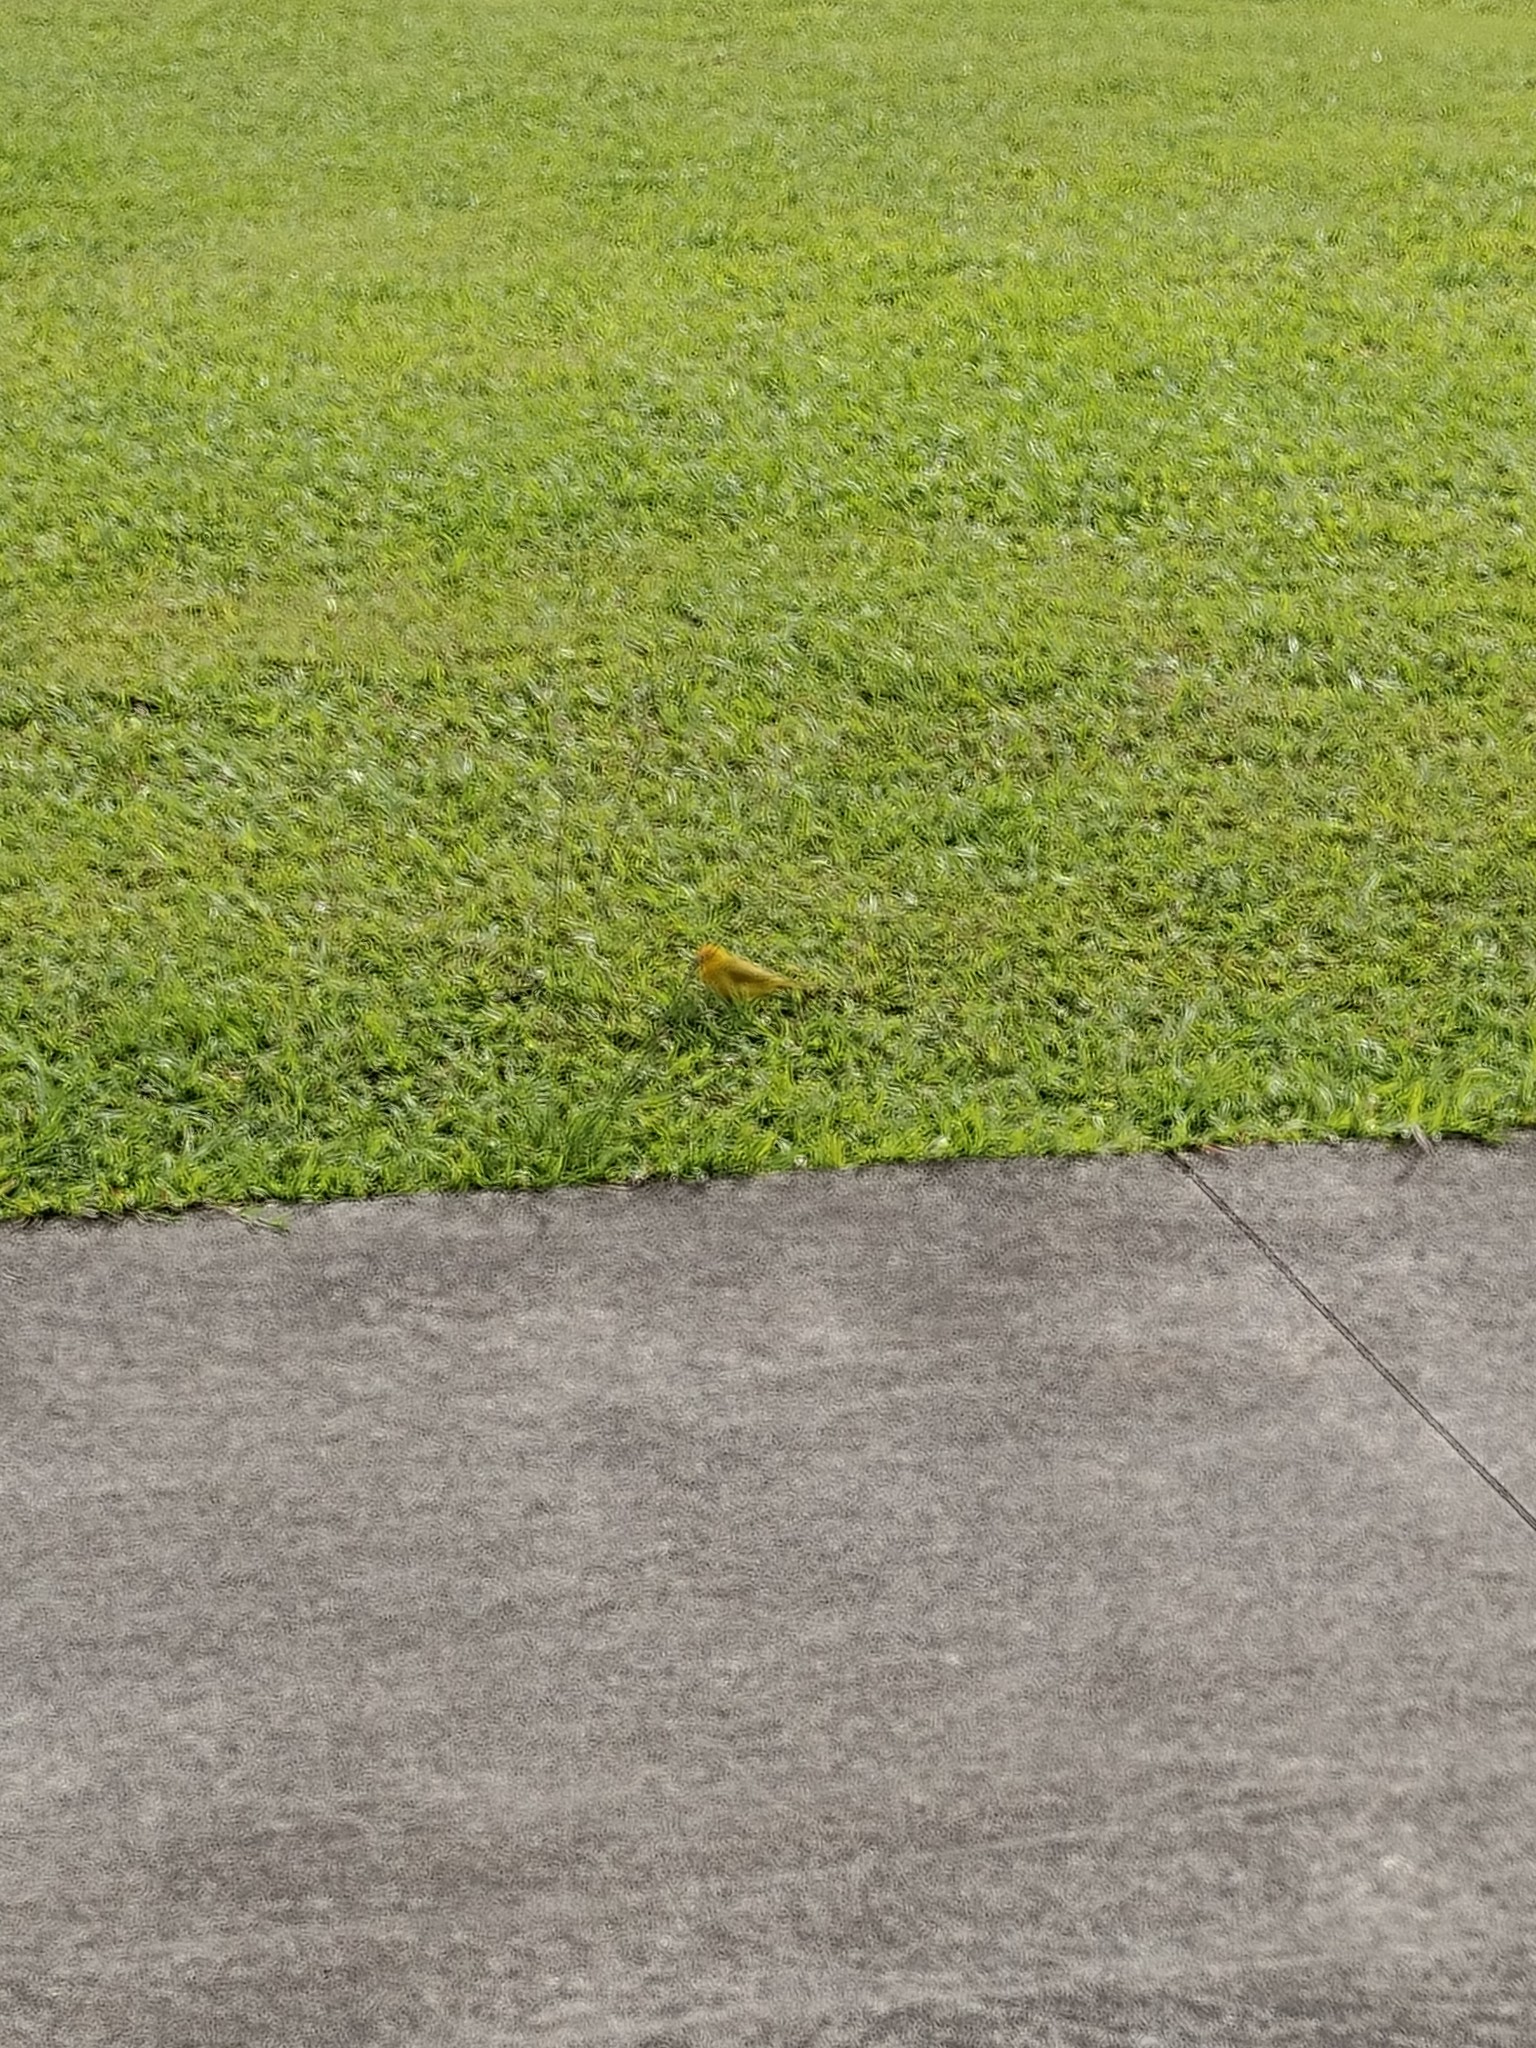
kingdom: Animalia
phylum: Chordata
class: Aves
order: Passeriformes
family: Thraupidae
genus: Sicalis
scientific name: Sicalis flaveola
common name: Saffron finch
